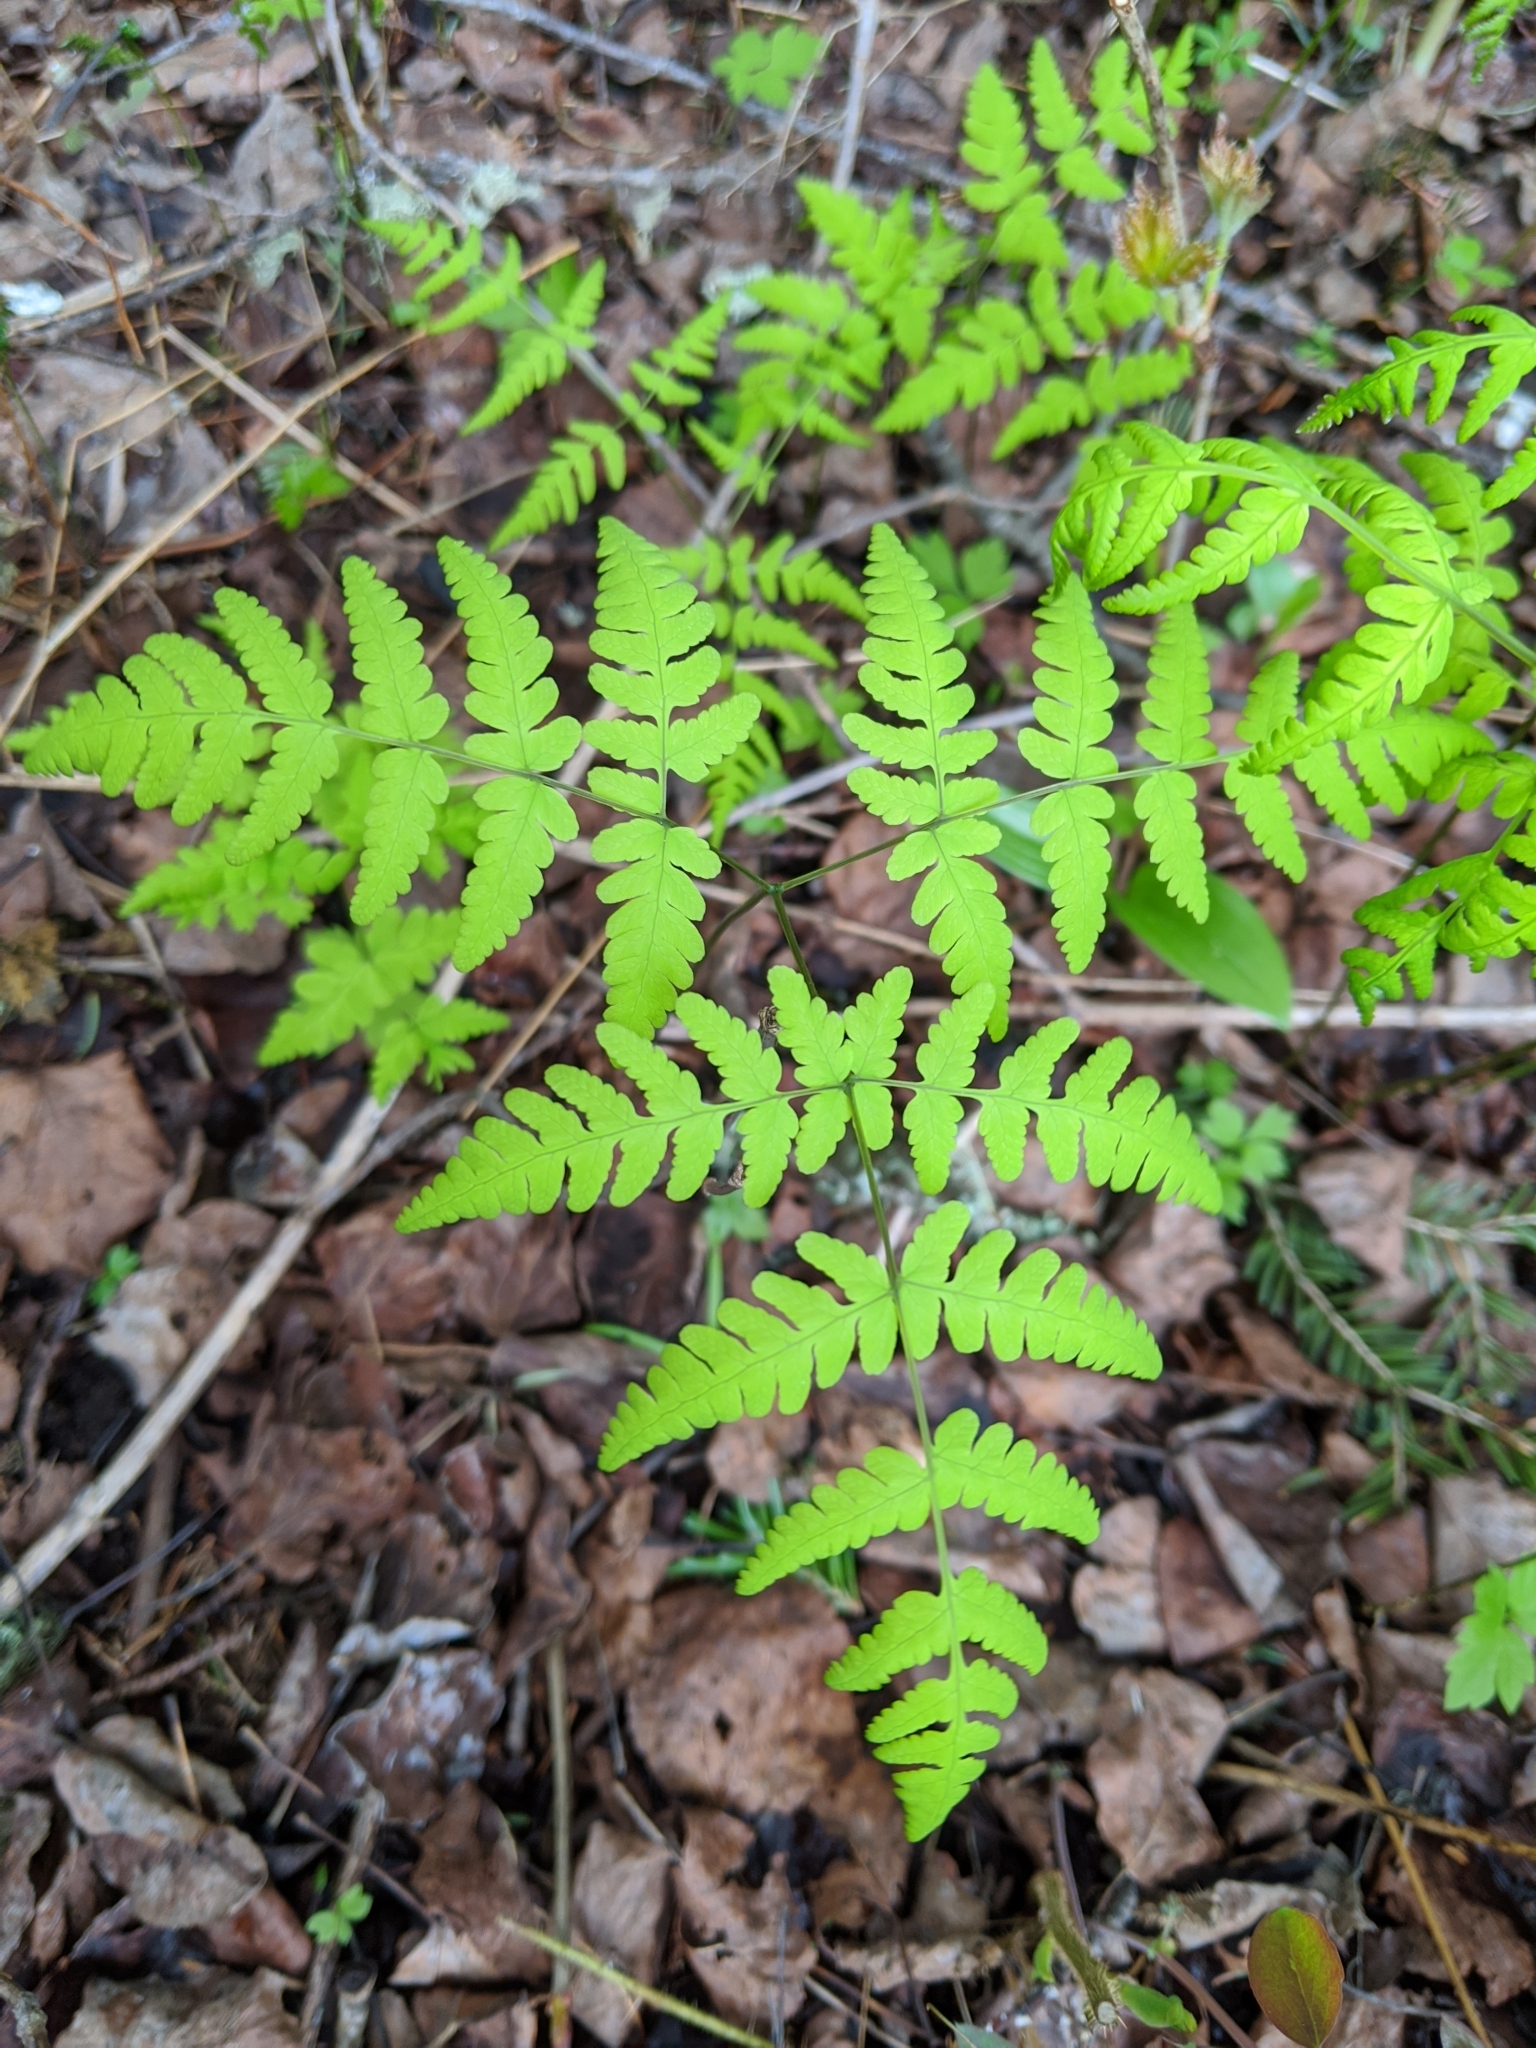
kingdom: Plantae
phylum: Tracheophyta
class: Polypodiopsida
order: Polypodiales
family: Cystopteridaceae
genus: Gymnocarpium
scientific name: Gymnocarpium dryopteris
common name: Oak fern
